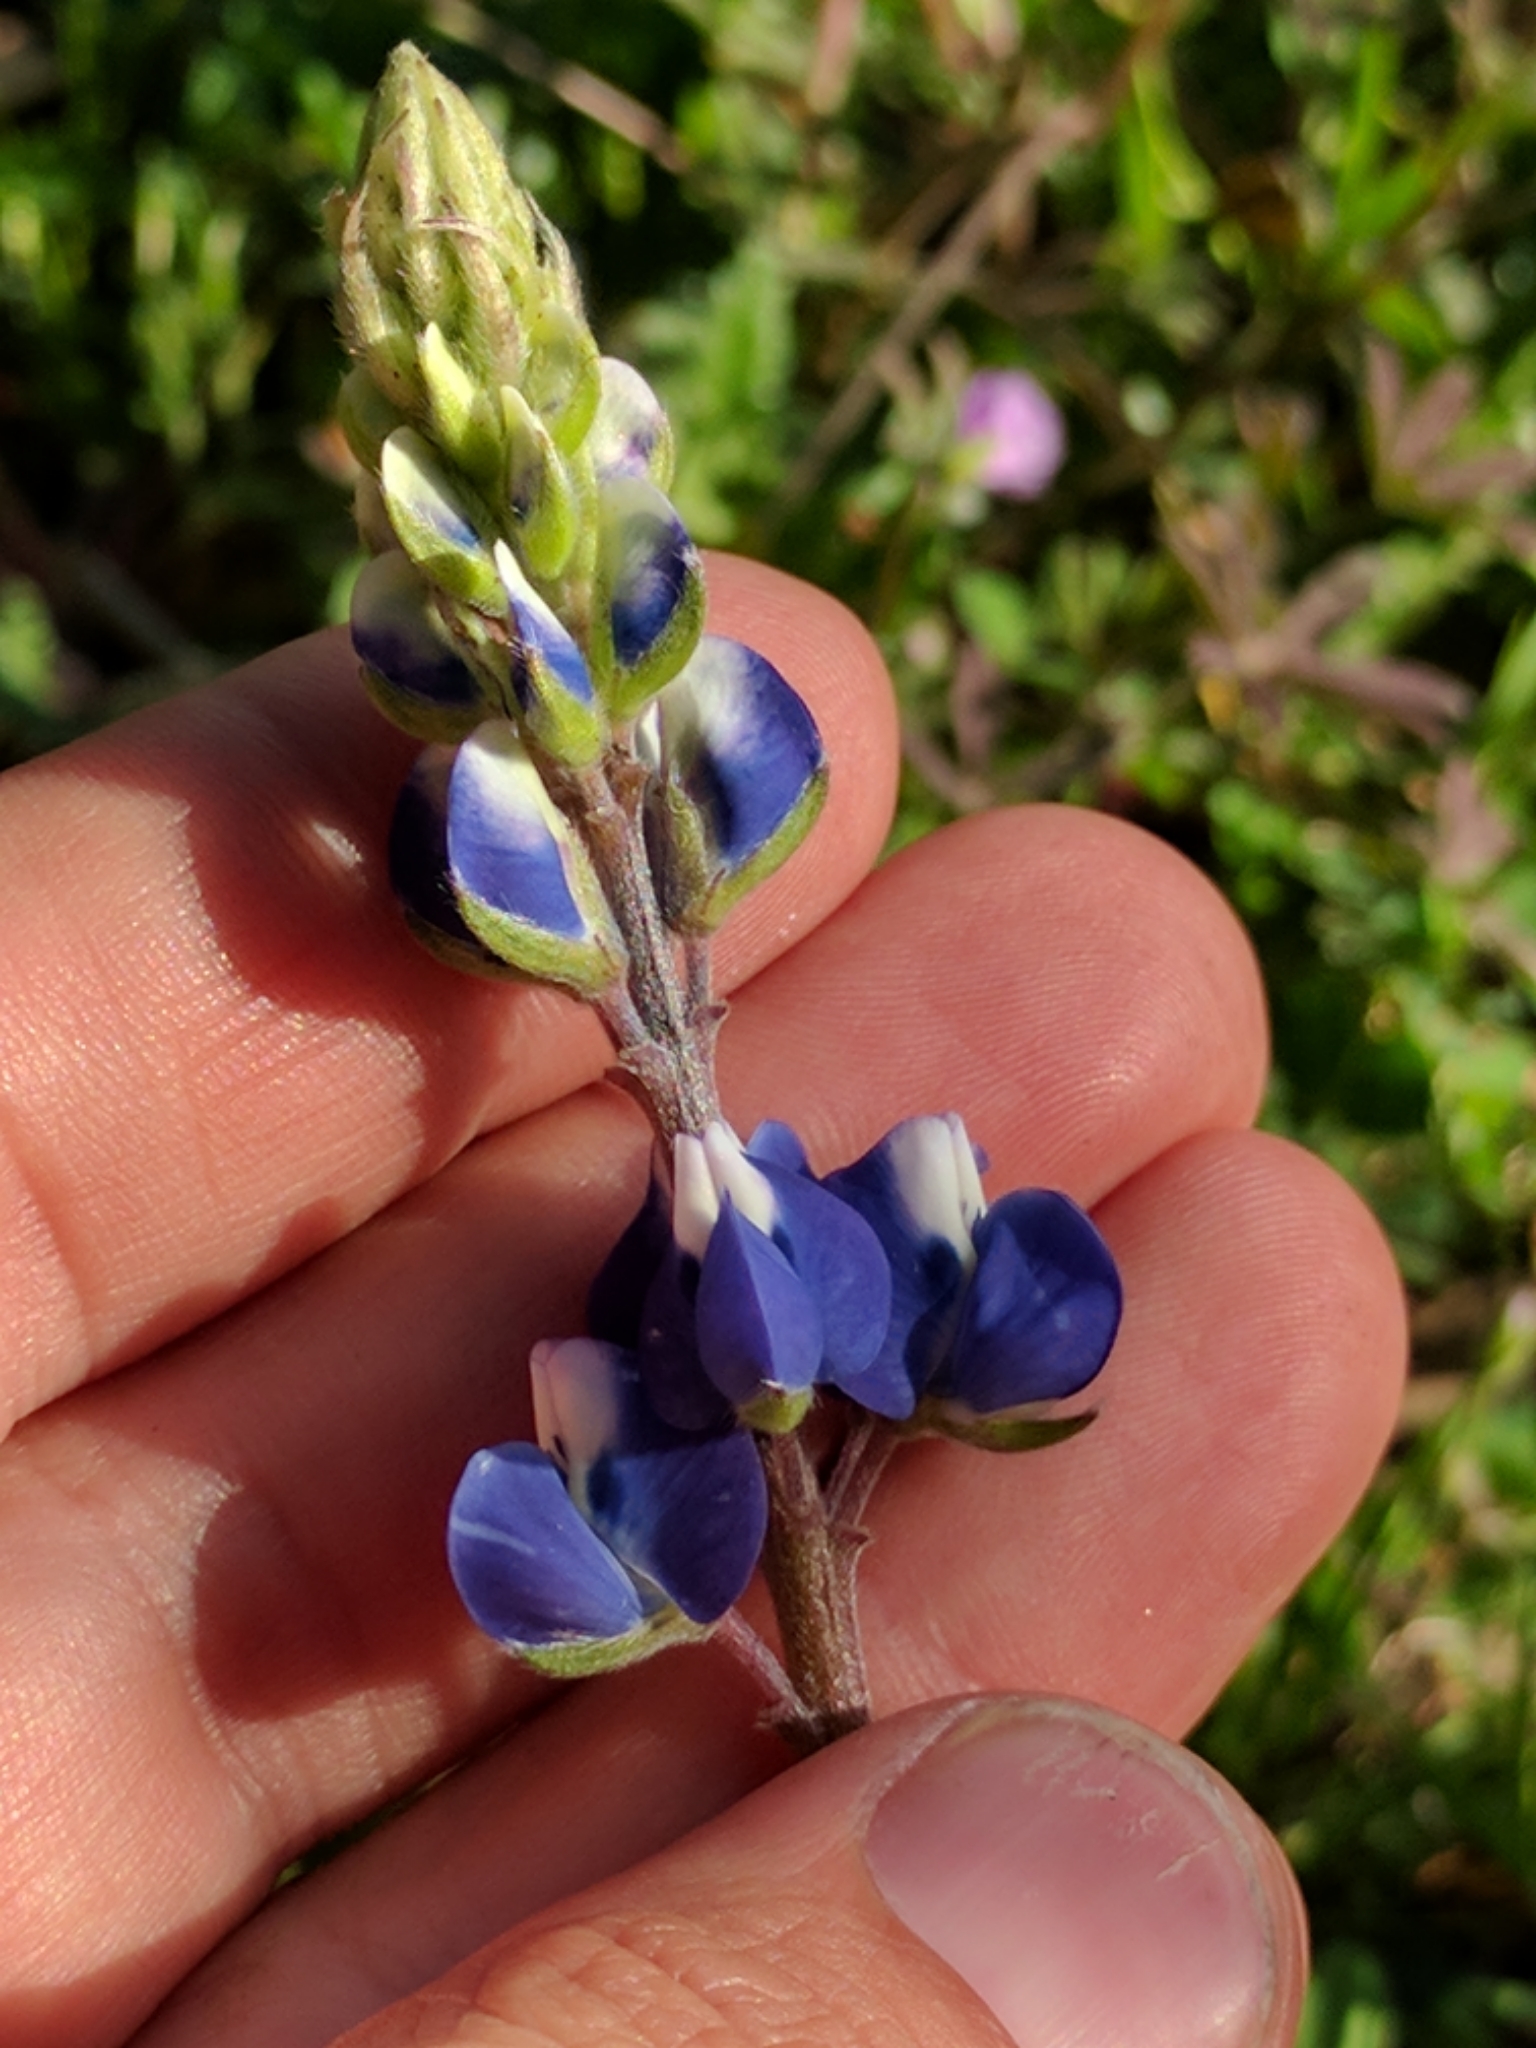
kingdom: Plantae
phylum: Tracheophyta
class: Magnoliopsida
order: Fabales
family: Fabaceae
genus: Lupinus
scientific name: Lupinus nanus
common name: Orean blue lupin
